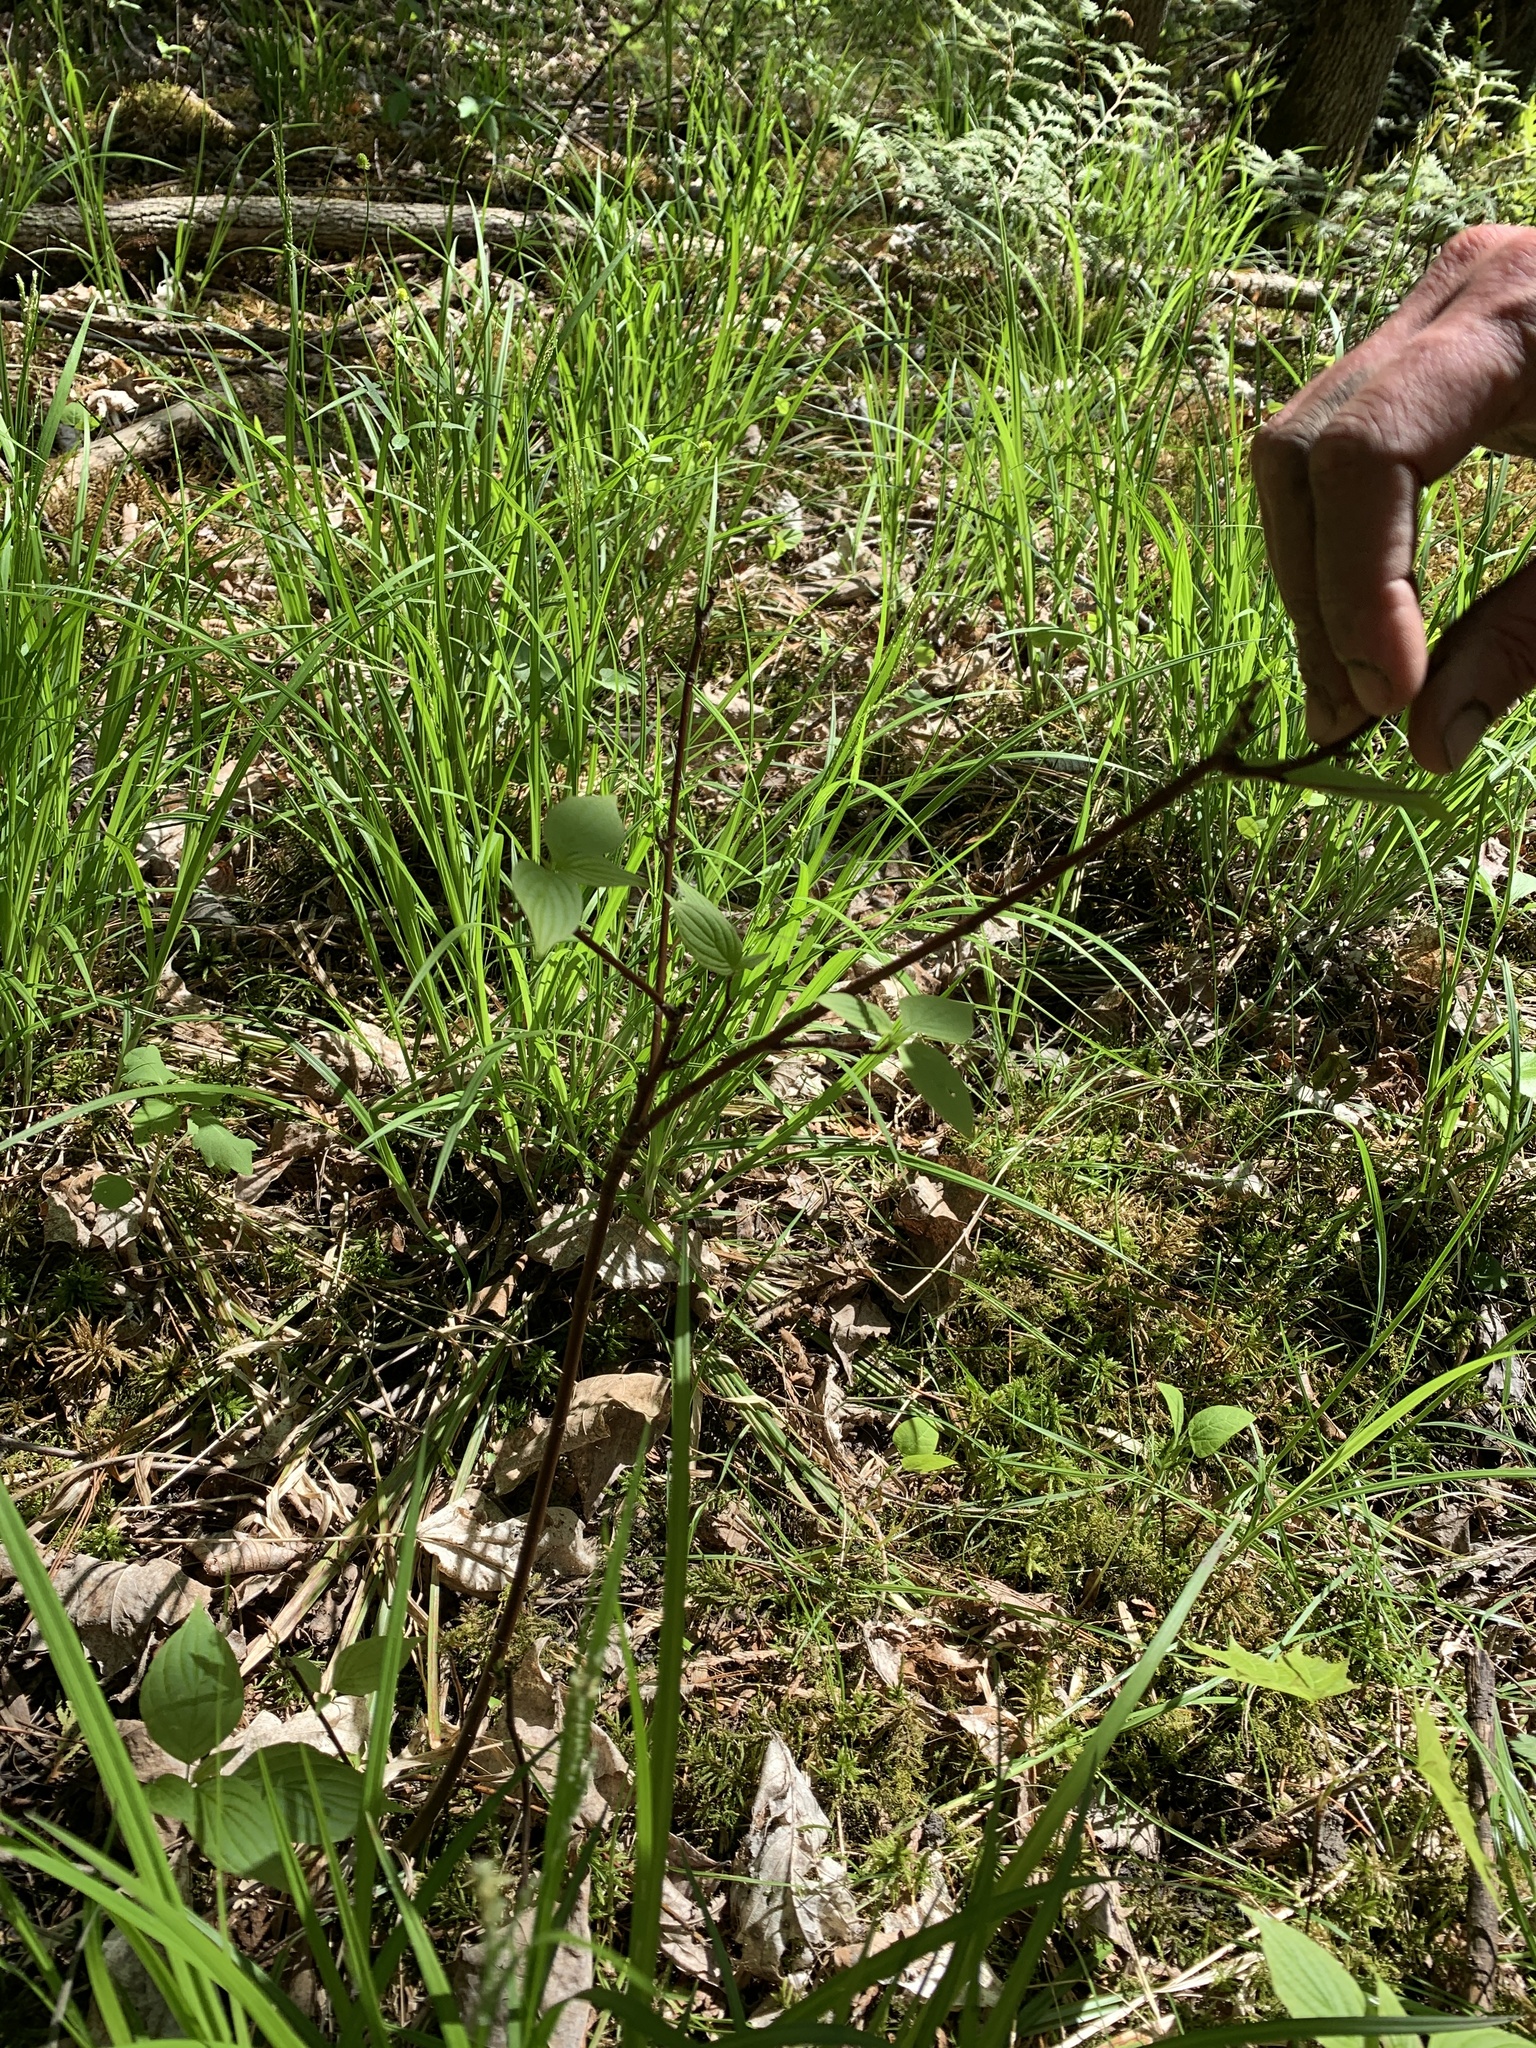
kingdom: Plantae
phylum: Tracheophyta
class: Magnoliopsida
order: Cornales
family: Cornaceae
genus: Cornus
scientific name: Cornus alternifolia
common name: Pagoda dogwood
